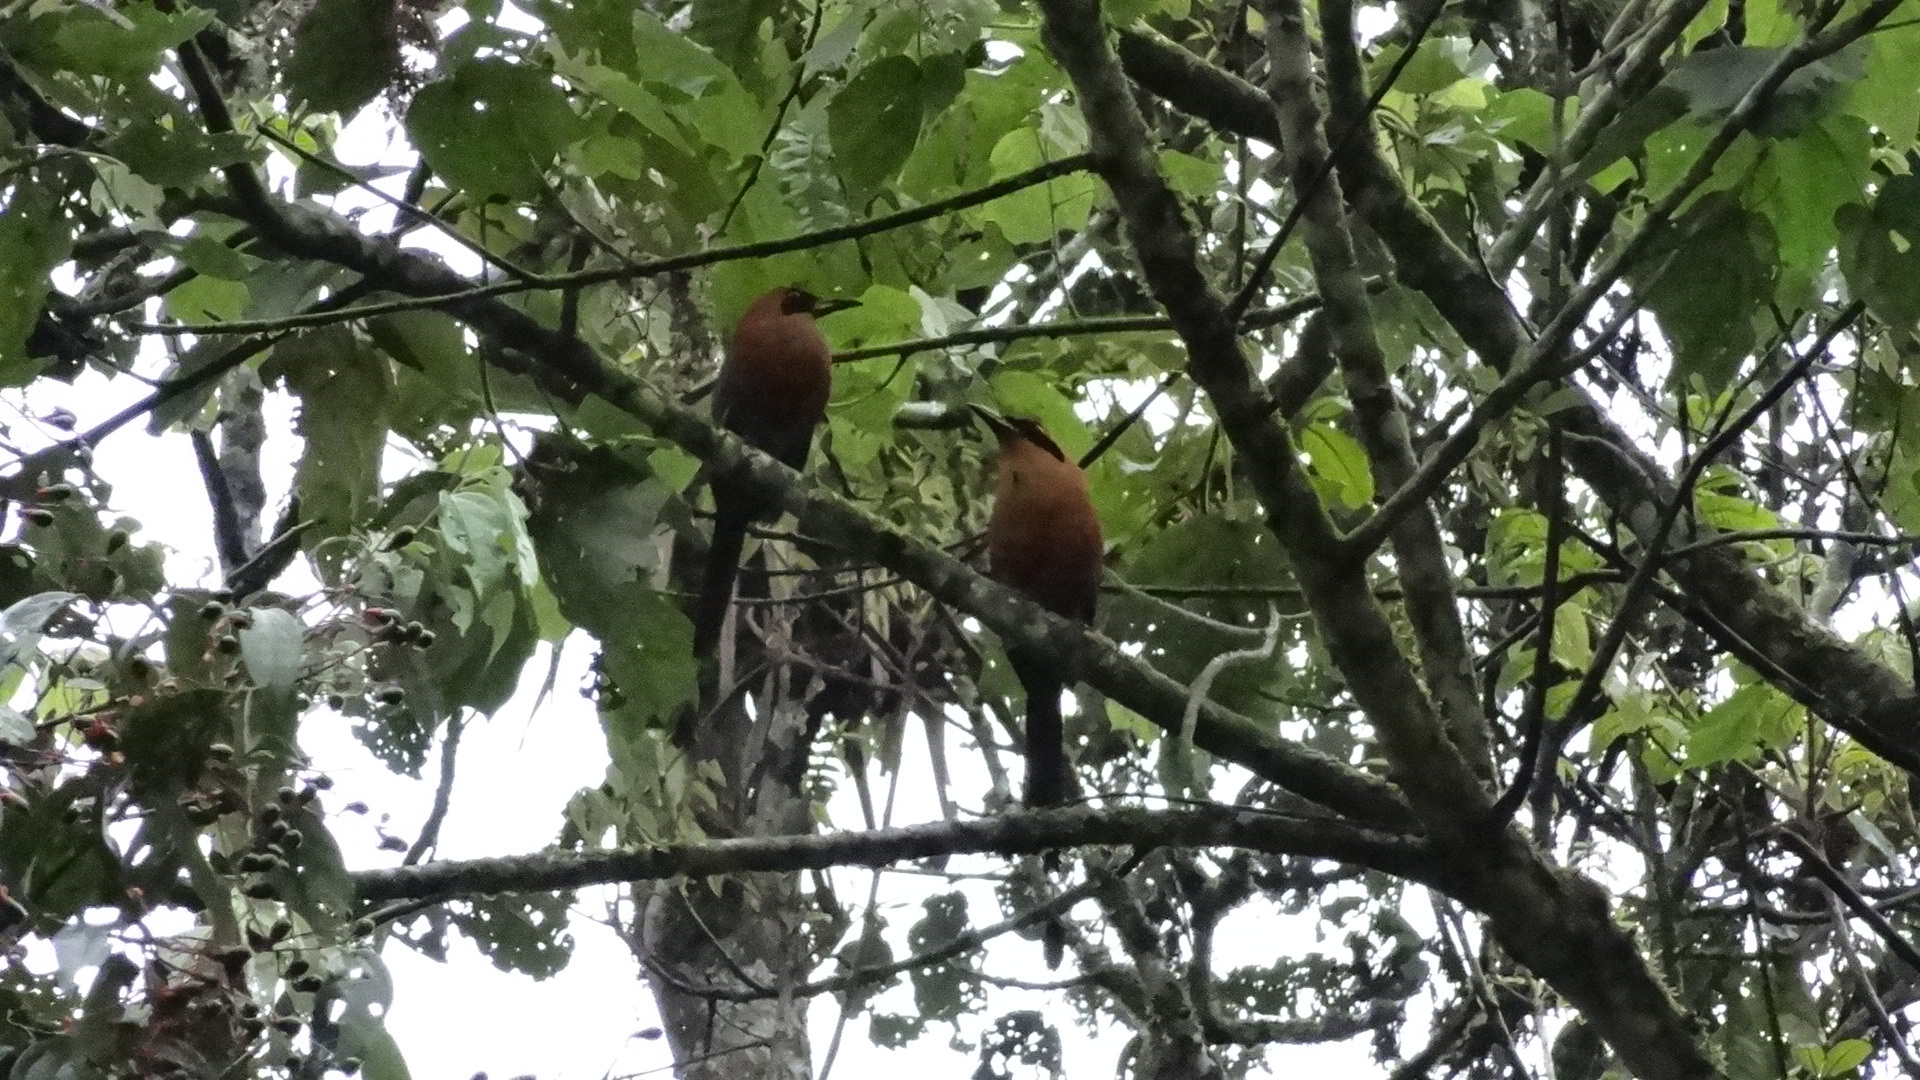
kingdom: Animalia
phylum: Chordata
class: Aves
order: Coraciiformes
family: Momotidae
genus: Baryphthengus
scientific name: Baryphthengus martii
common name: Rufous motmot
